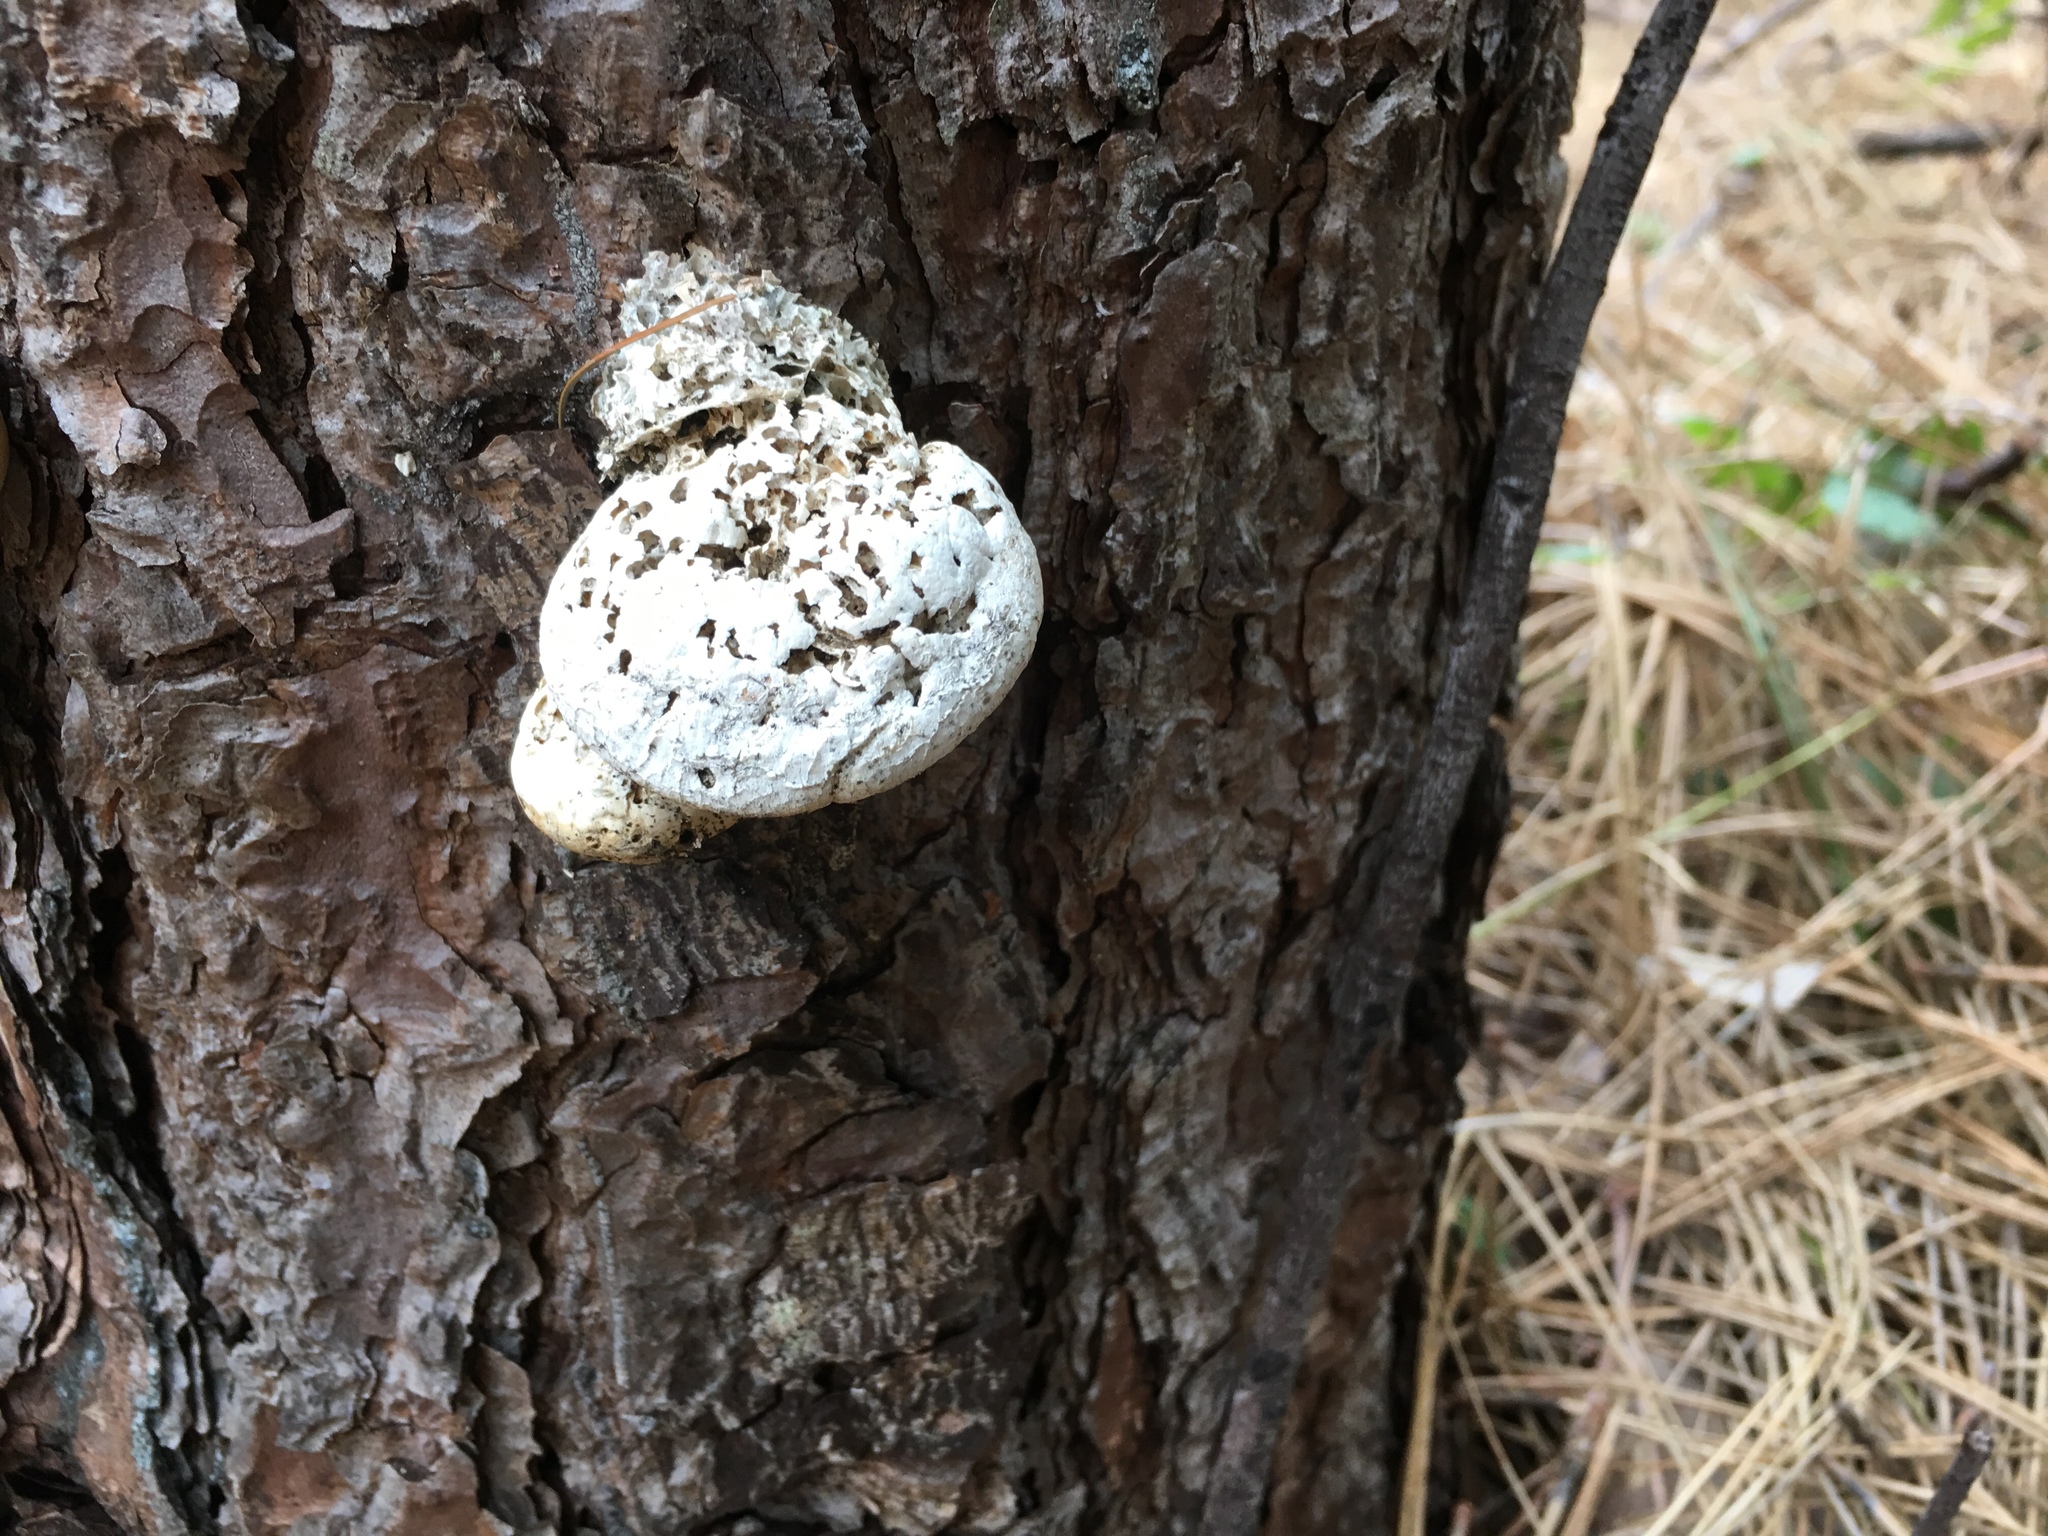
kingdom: Fungi
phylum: Basidiomycota
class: Agaricomycetes
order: Polyporales
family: Polyporaceae
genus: Cryptoporus
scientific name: Cryptoporus volvatus
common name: Veiled polypore
